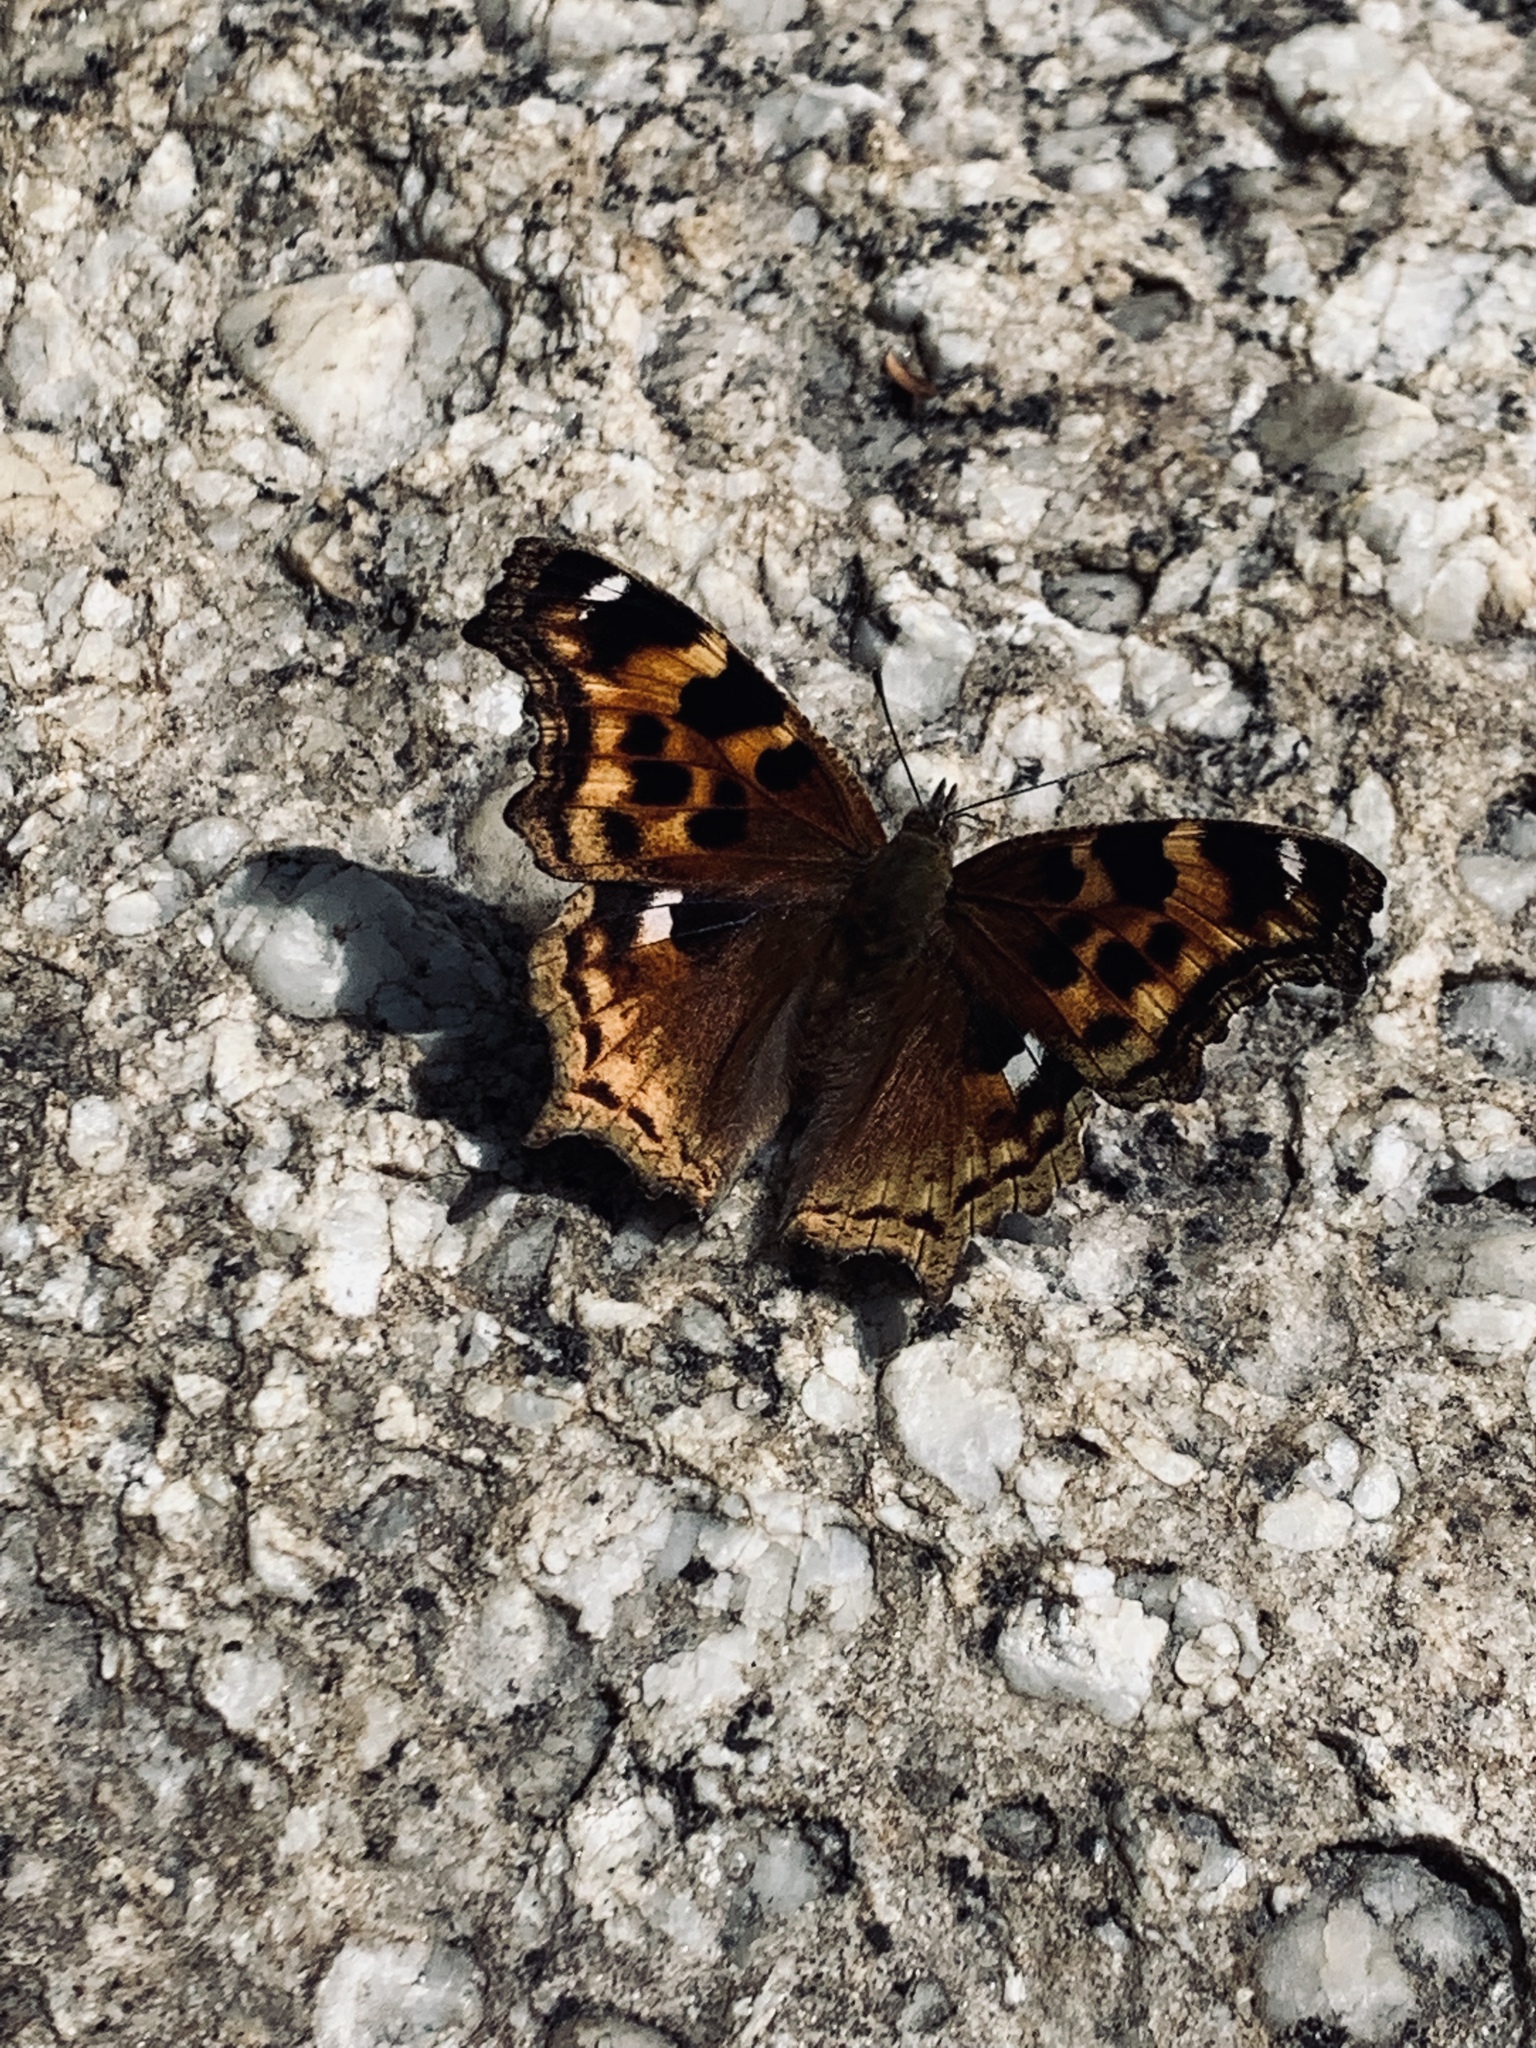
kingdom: Animalia
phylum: Arthropoda
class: Insecta
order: Lepidoptera
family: Nymphalidae
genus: Polygonia
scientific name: Polygonia vaualbum
